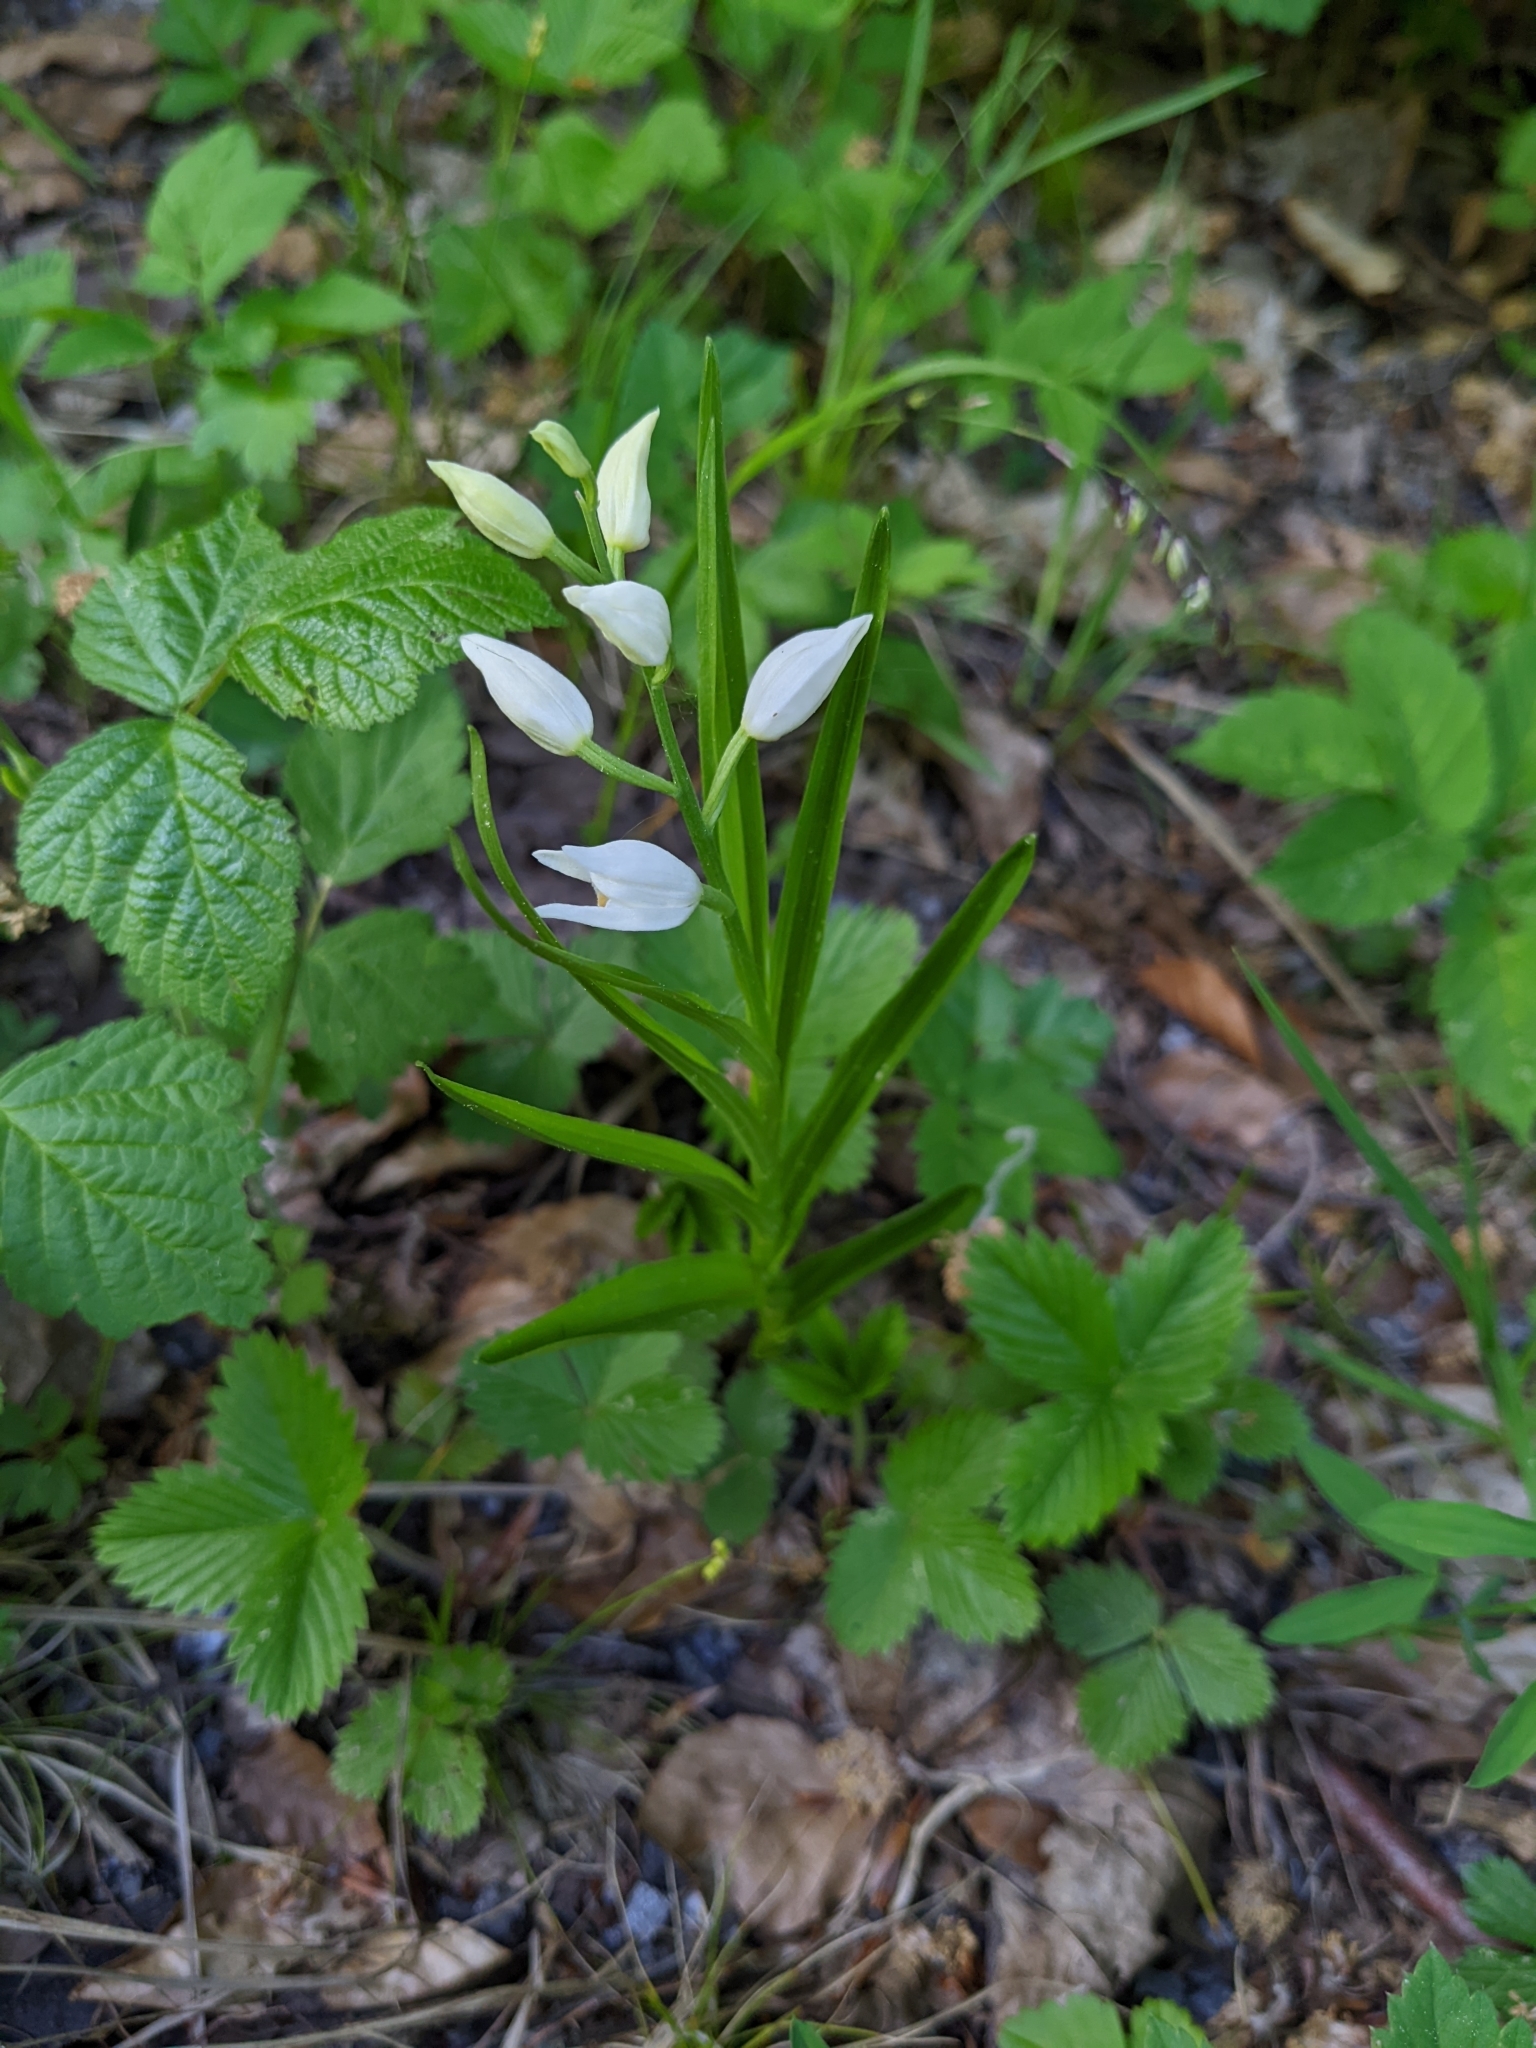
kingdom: Plantae
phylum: Tracheophyta
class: Liliopsida
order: Asparagales
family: Orchidaceae
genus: Cephalanthera
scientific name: Cephalanthera longifolia
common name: Narrow-leaved helleborine
